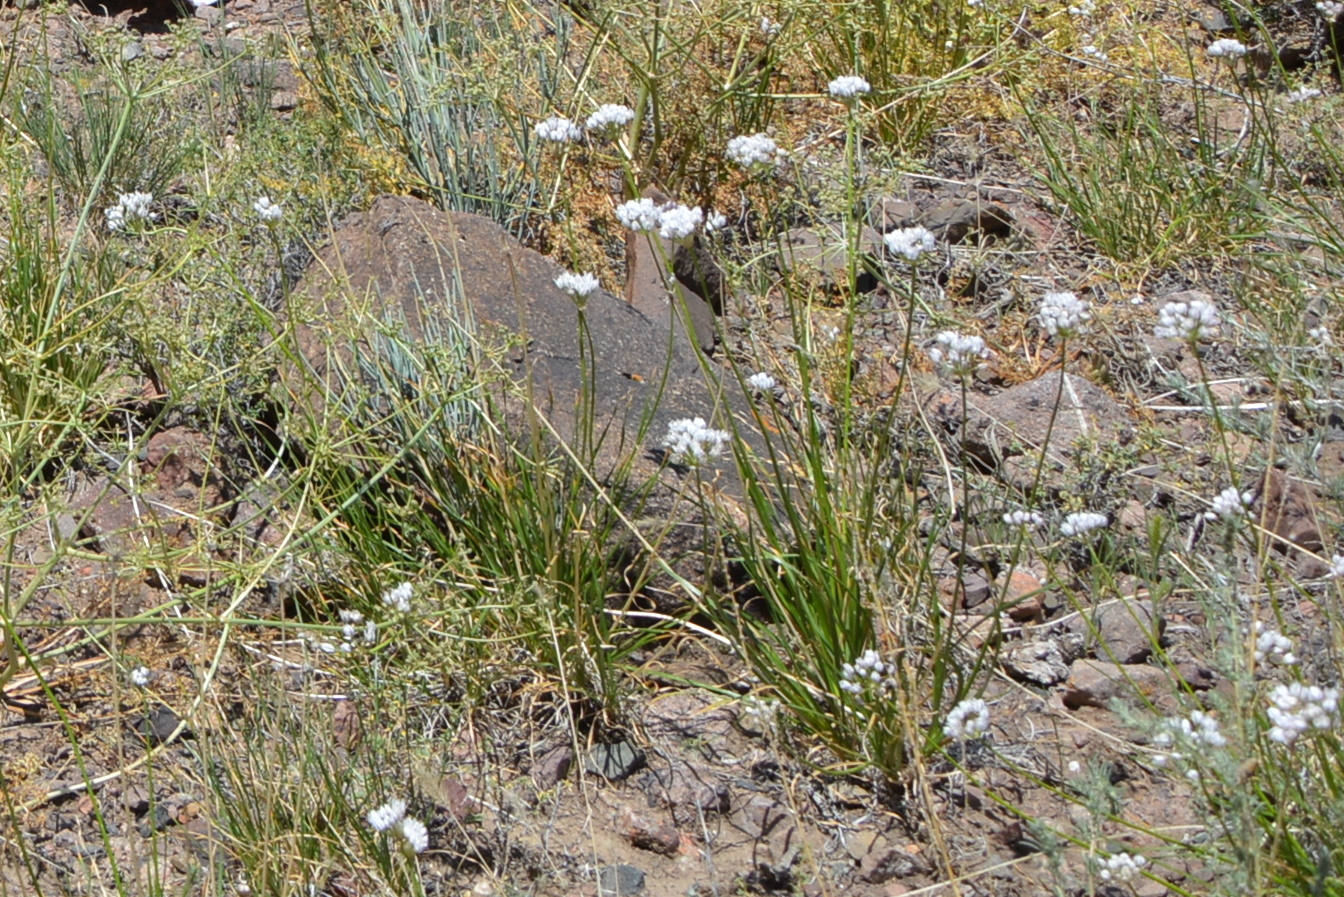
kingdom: Plantae
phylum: Tracheophyta
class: Liliopsida
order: Asparagales
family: Amaryllidaceae
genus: Allium
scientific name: Allium oreoprasum
